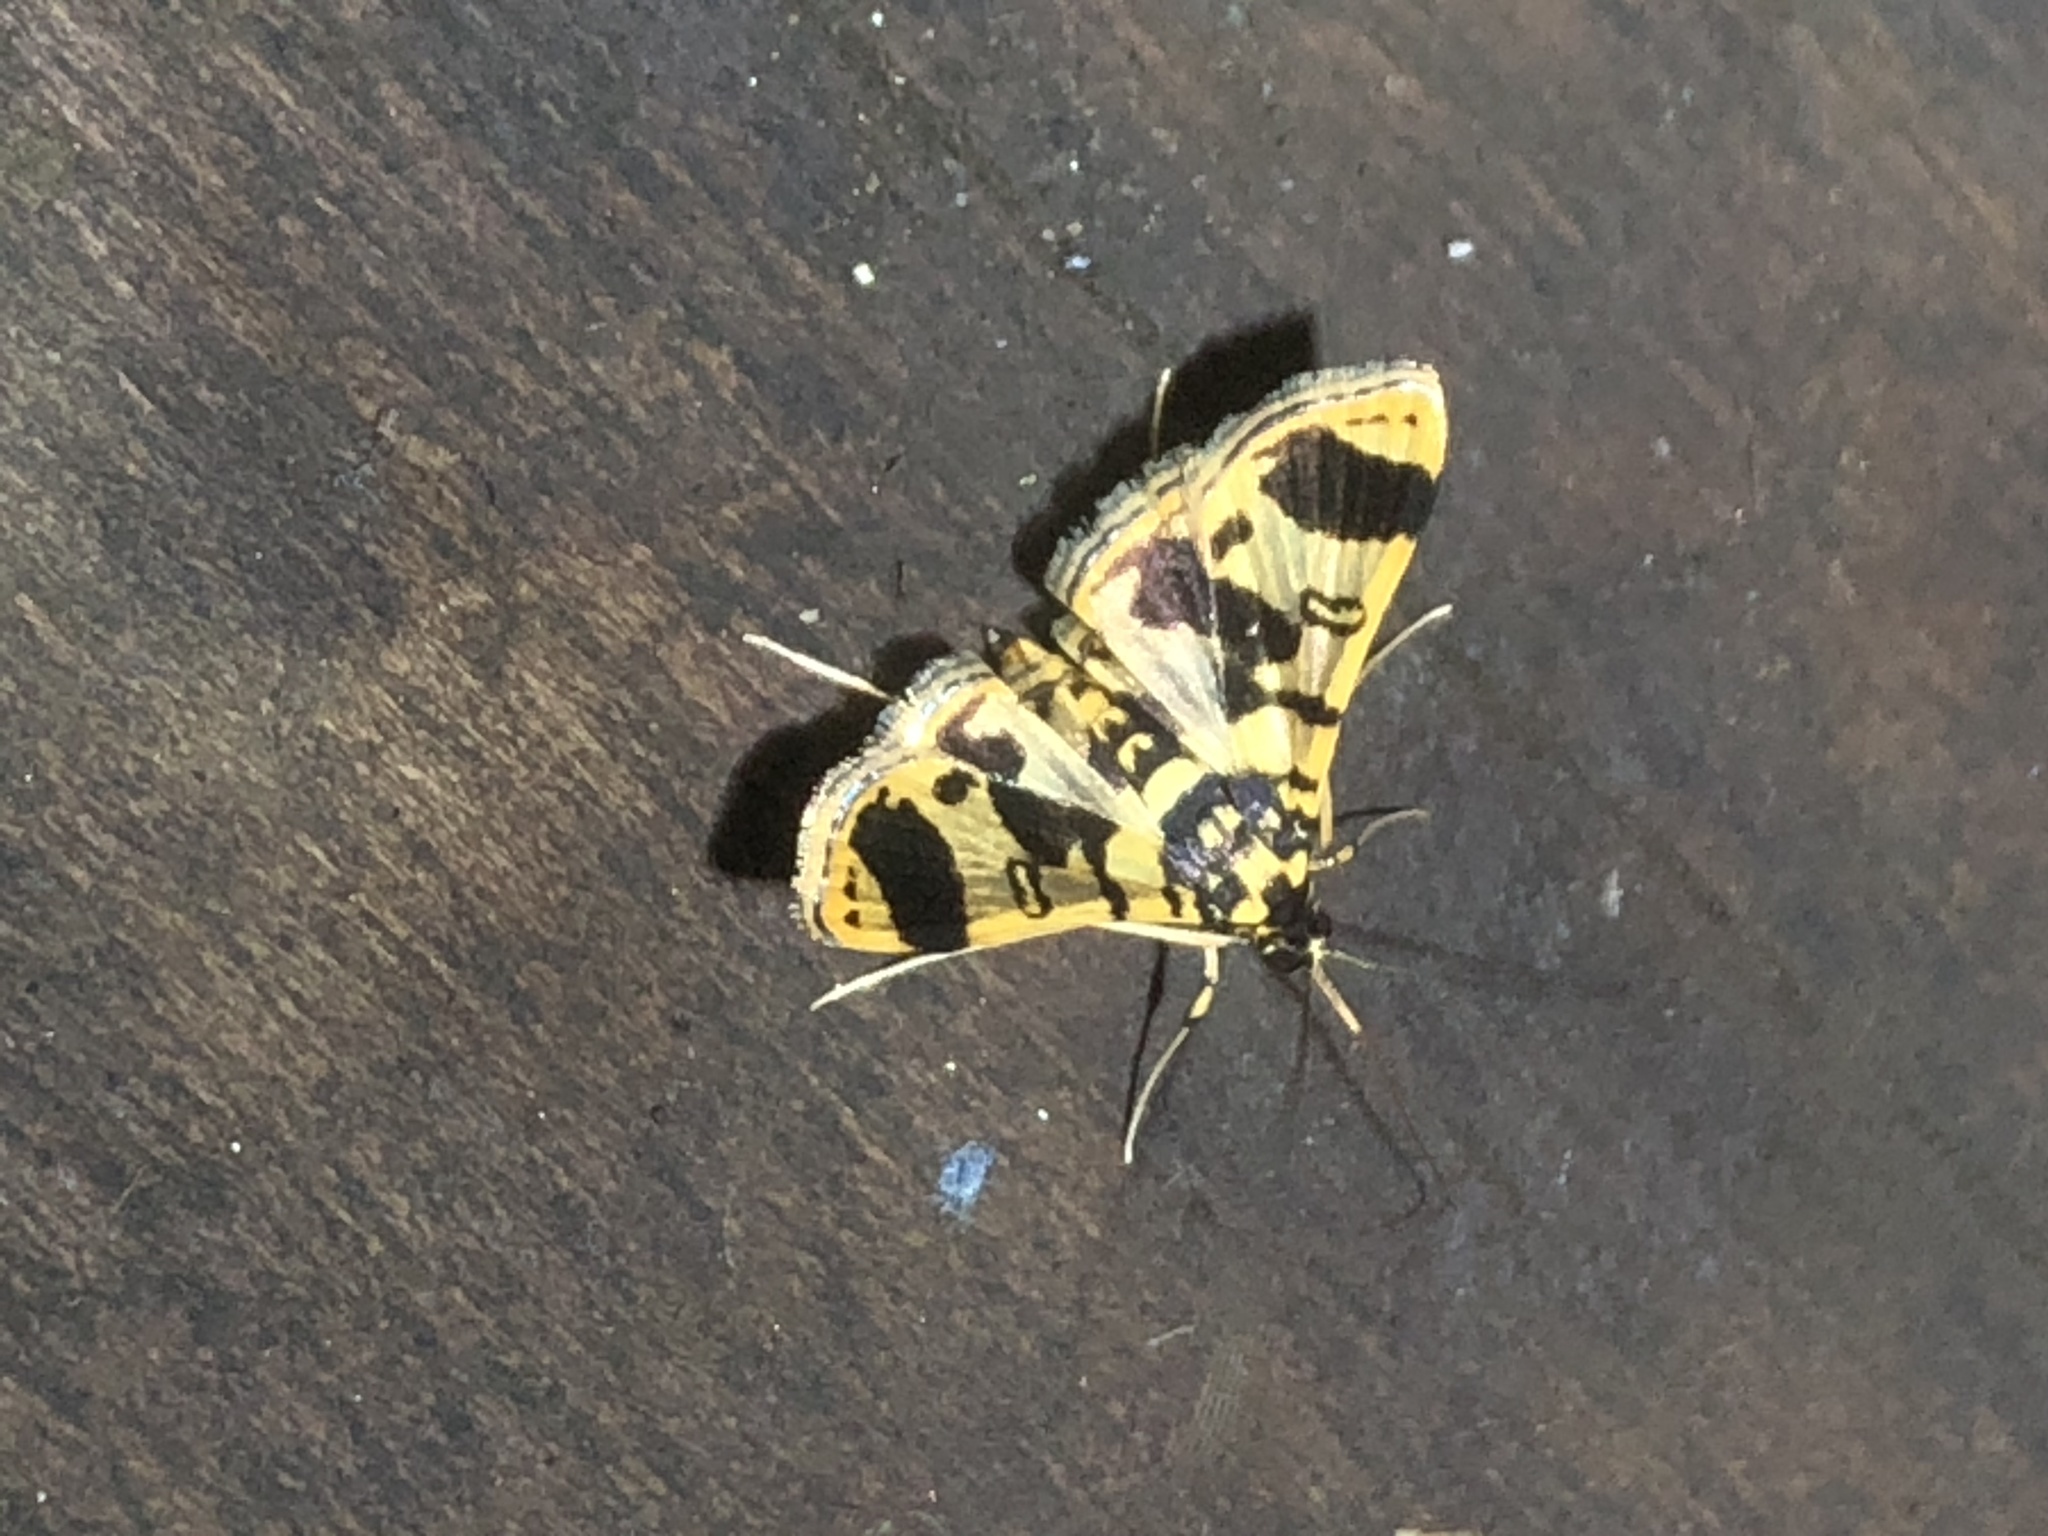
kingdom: Animalia
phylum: Arthropoda
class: Insecta
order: Lepidoptera
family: Crambidae
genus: Bradina
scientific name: Bradina aaronalis
